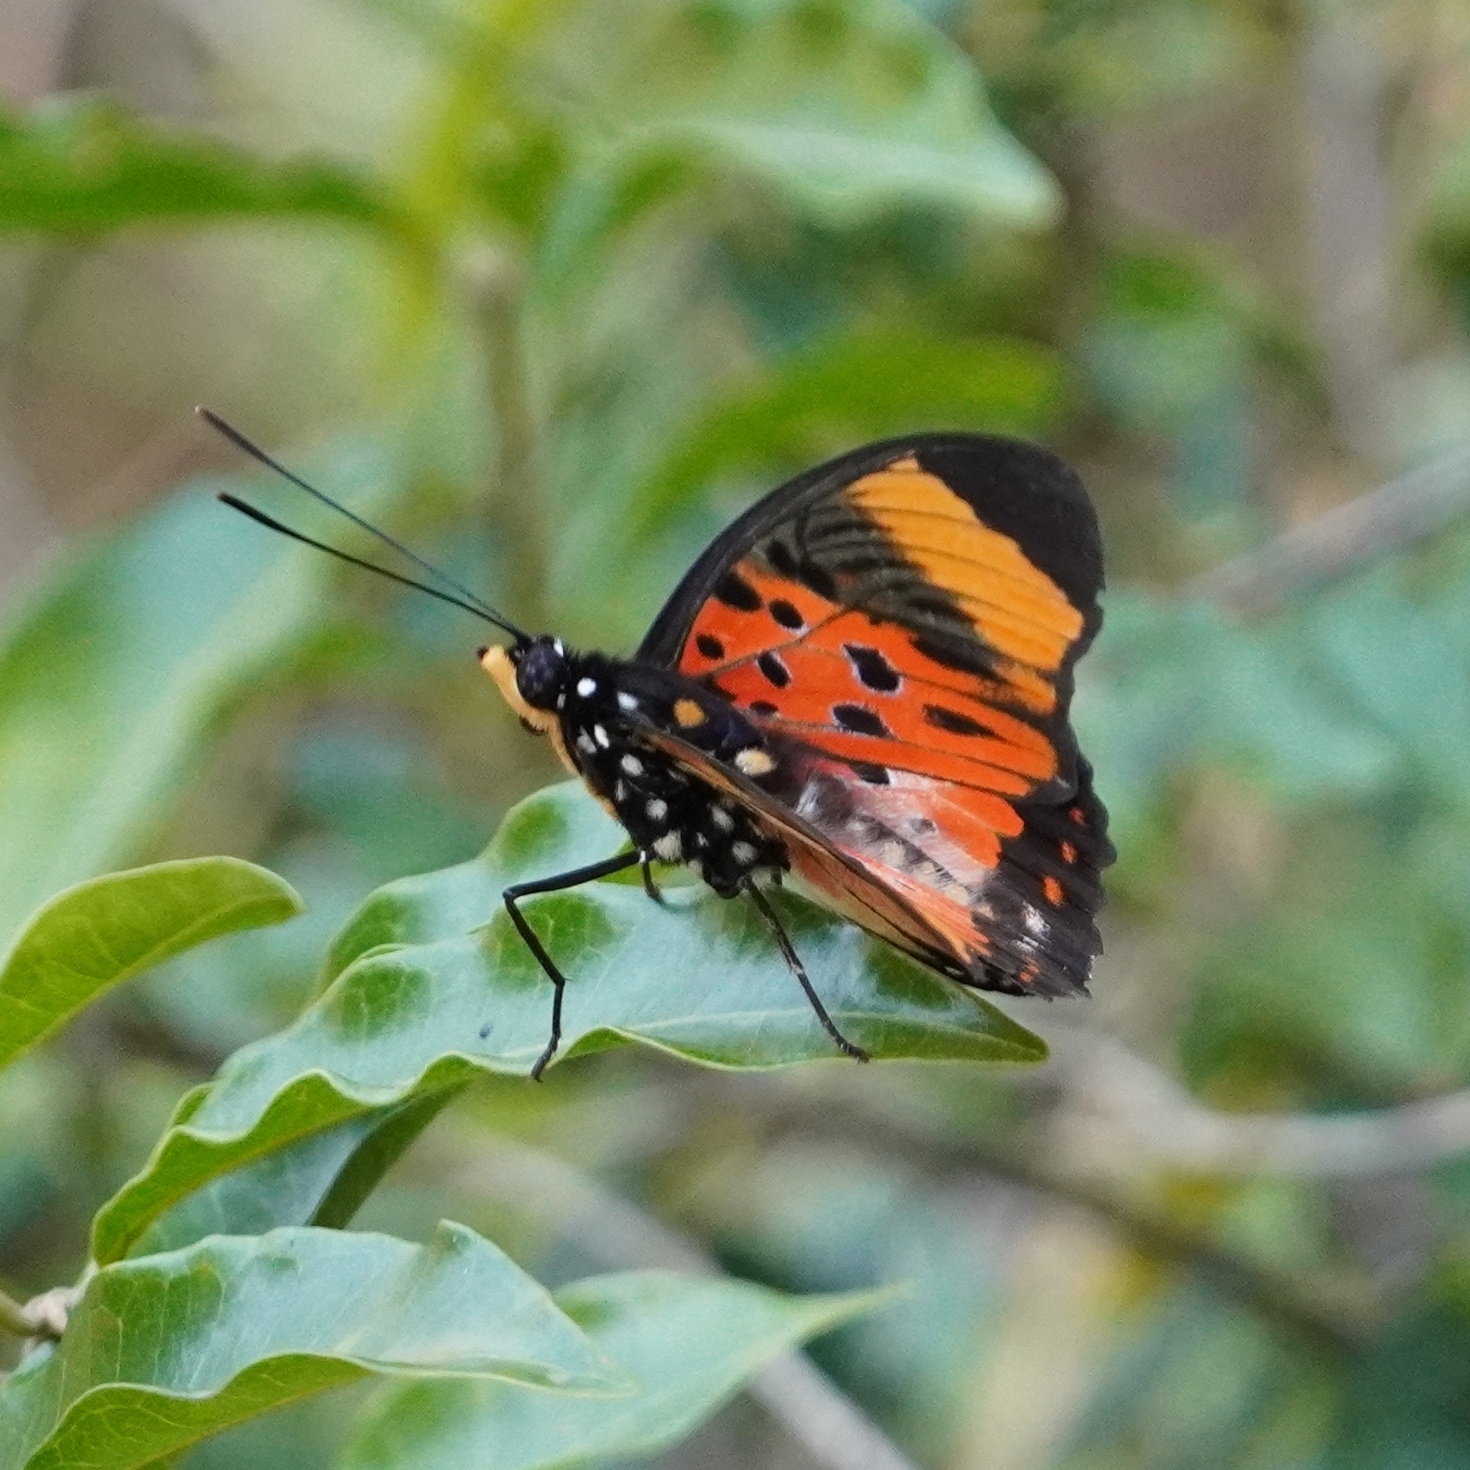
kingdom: Animalia
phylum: Arthropoda
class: Insecta
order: Lepidoptera
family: Nymphalidae
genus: Chloropoea
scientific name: Chloropoea boisduvalii
